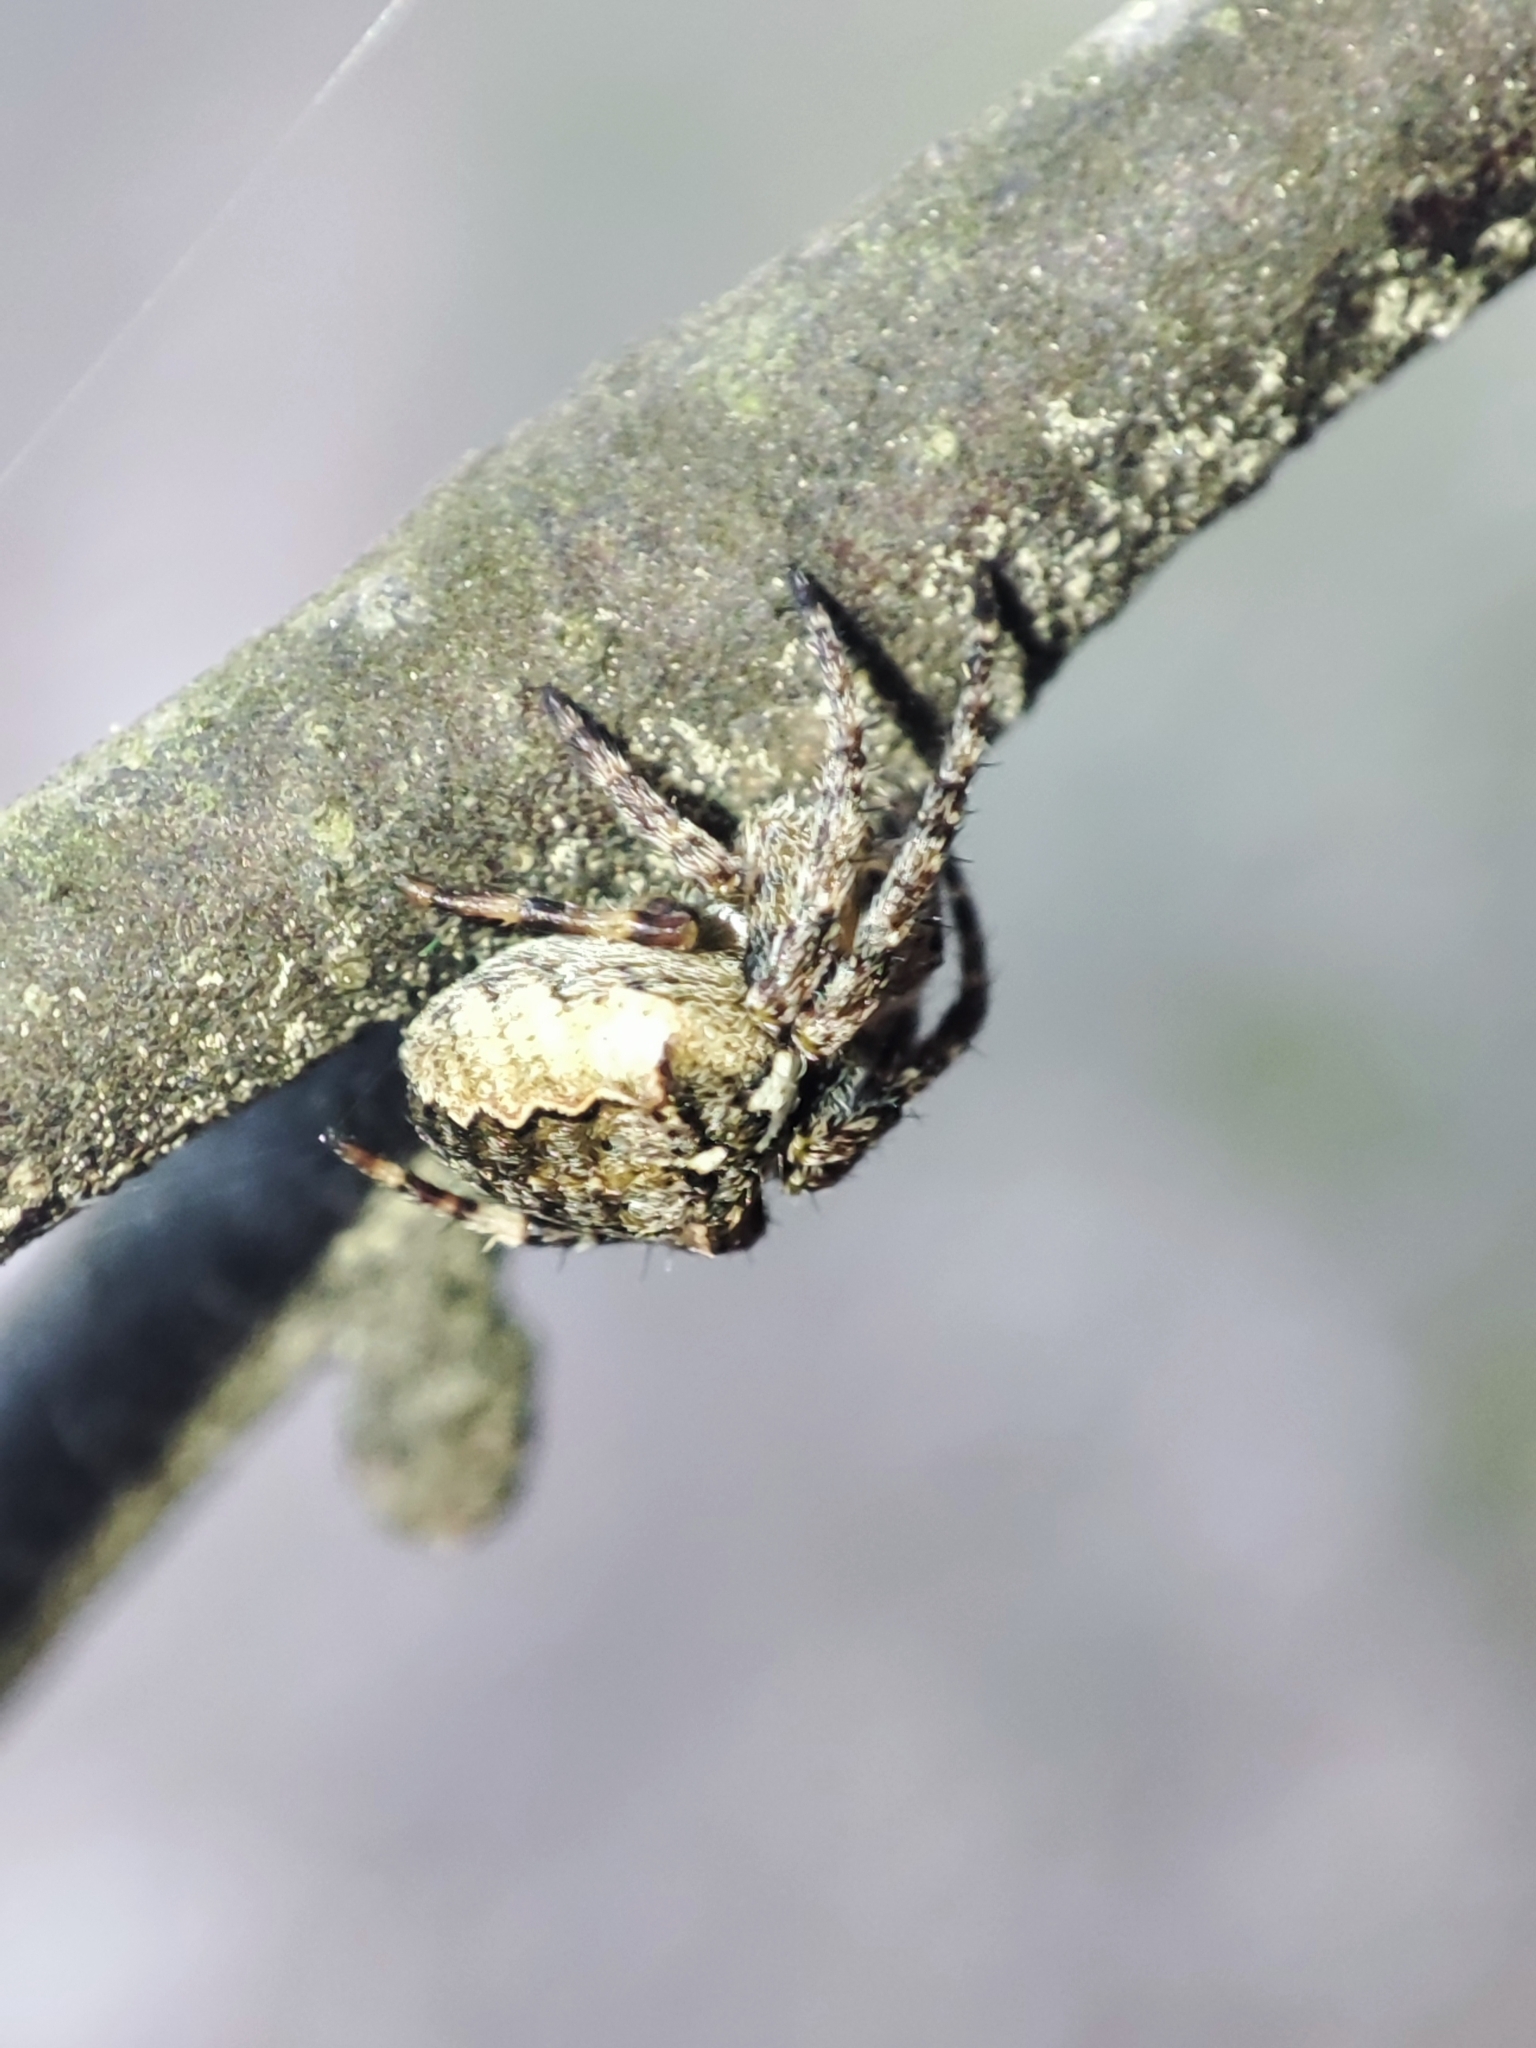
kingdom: Animalia
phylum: Arthropoda
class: Arachnida
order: Araneae
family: Araneidae
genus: Araneus
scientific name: Araneus angulatus
